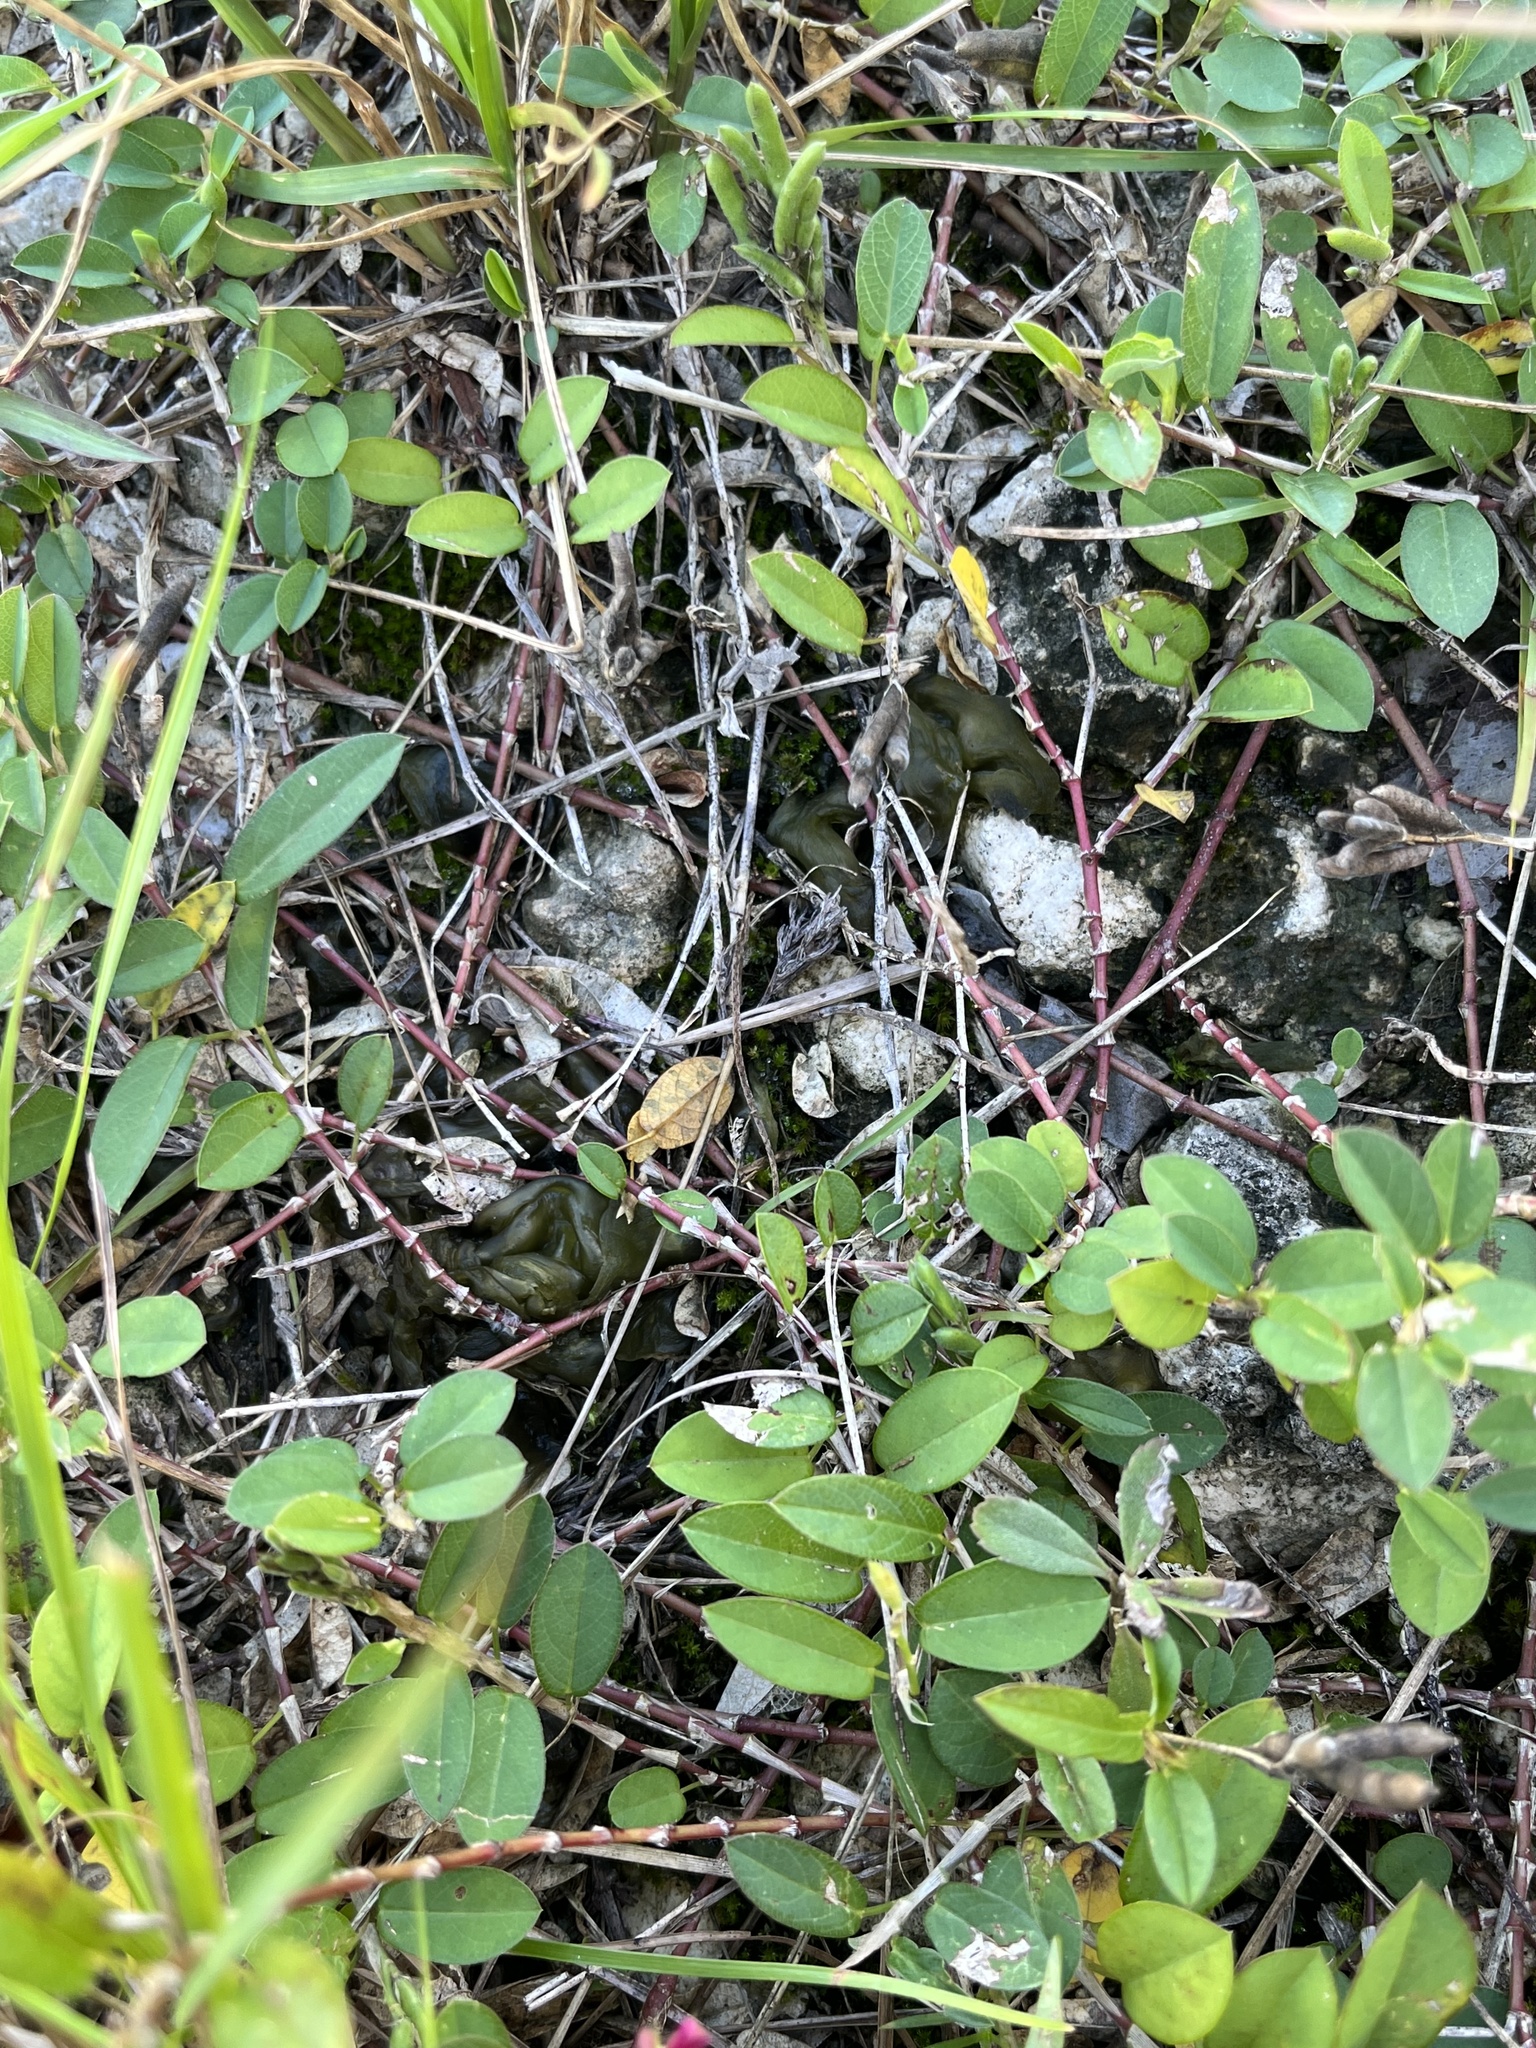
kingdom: Bacteria
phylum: Cyanobacteria
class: Cyanobacteriia
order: Cyanobacteriales
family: Nostocaceae
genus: Nostoc
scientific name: Nostoc commune
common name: Star jelly
